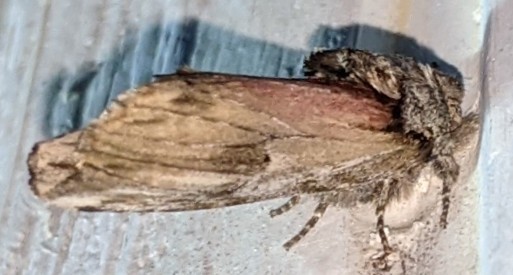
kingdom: Animalia
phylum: Arthropoda
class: Insecta
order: Lepidoptera
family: Notodontidae
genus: Schizura
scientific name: Schizura
